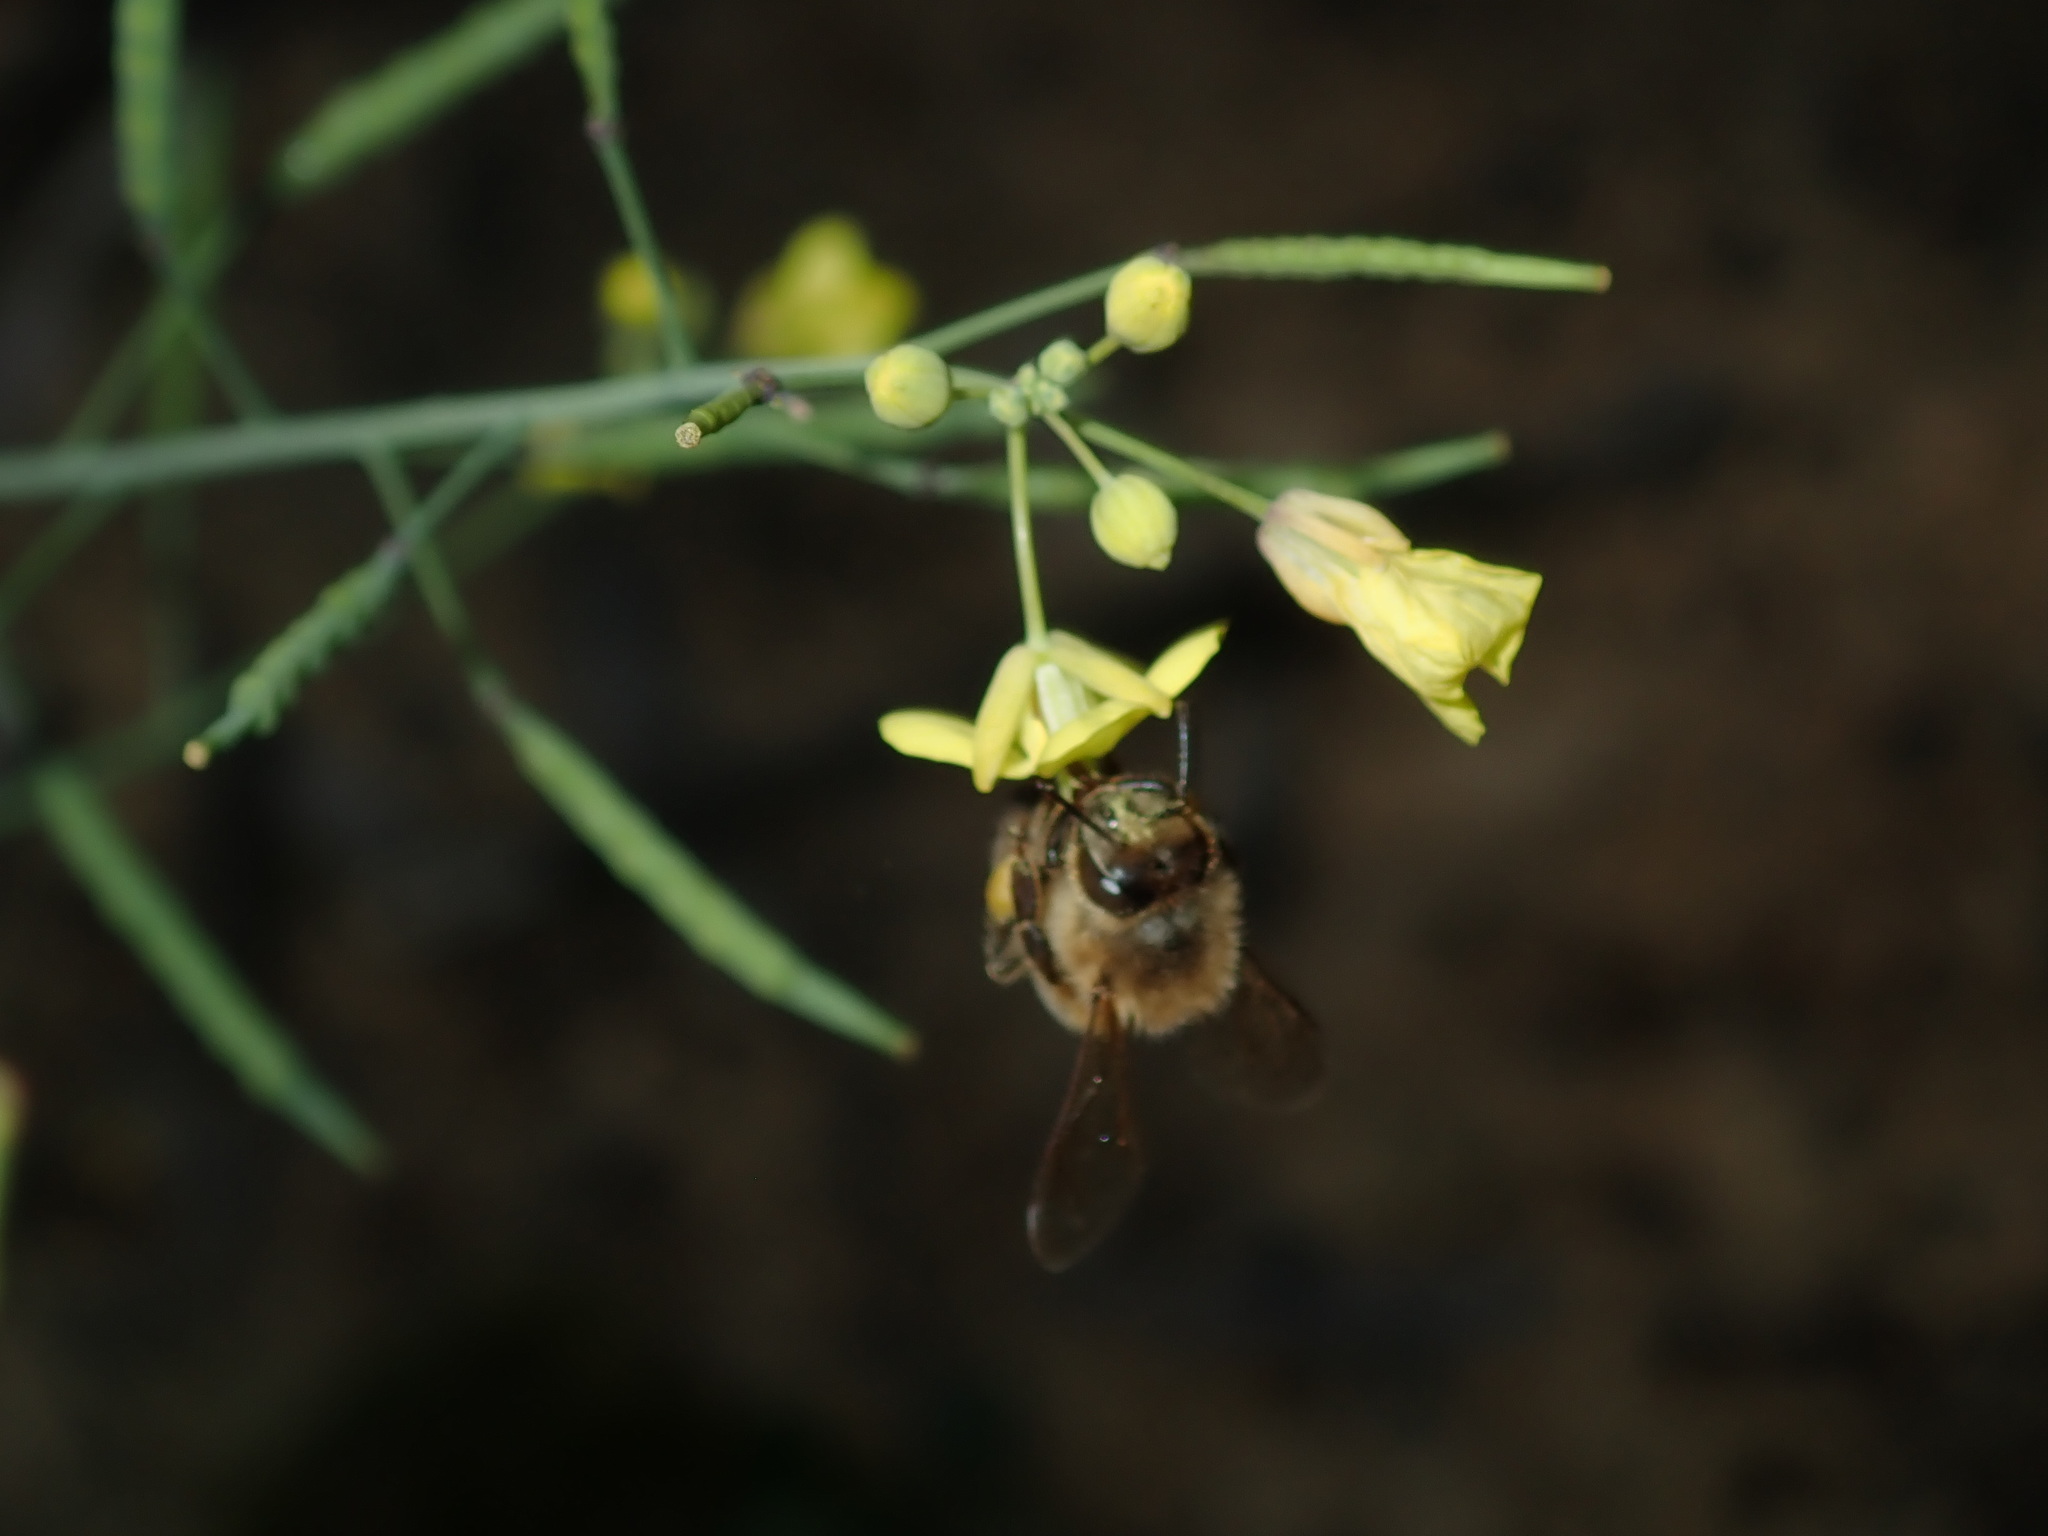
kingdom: Animalia
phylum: Arthropoda
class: Insecta
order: Hymenoptera
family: Apidae
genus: Apis
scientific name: Apis mellifera
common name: Honey bee
